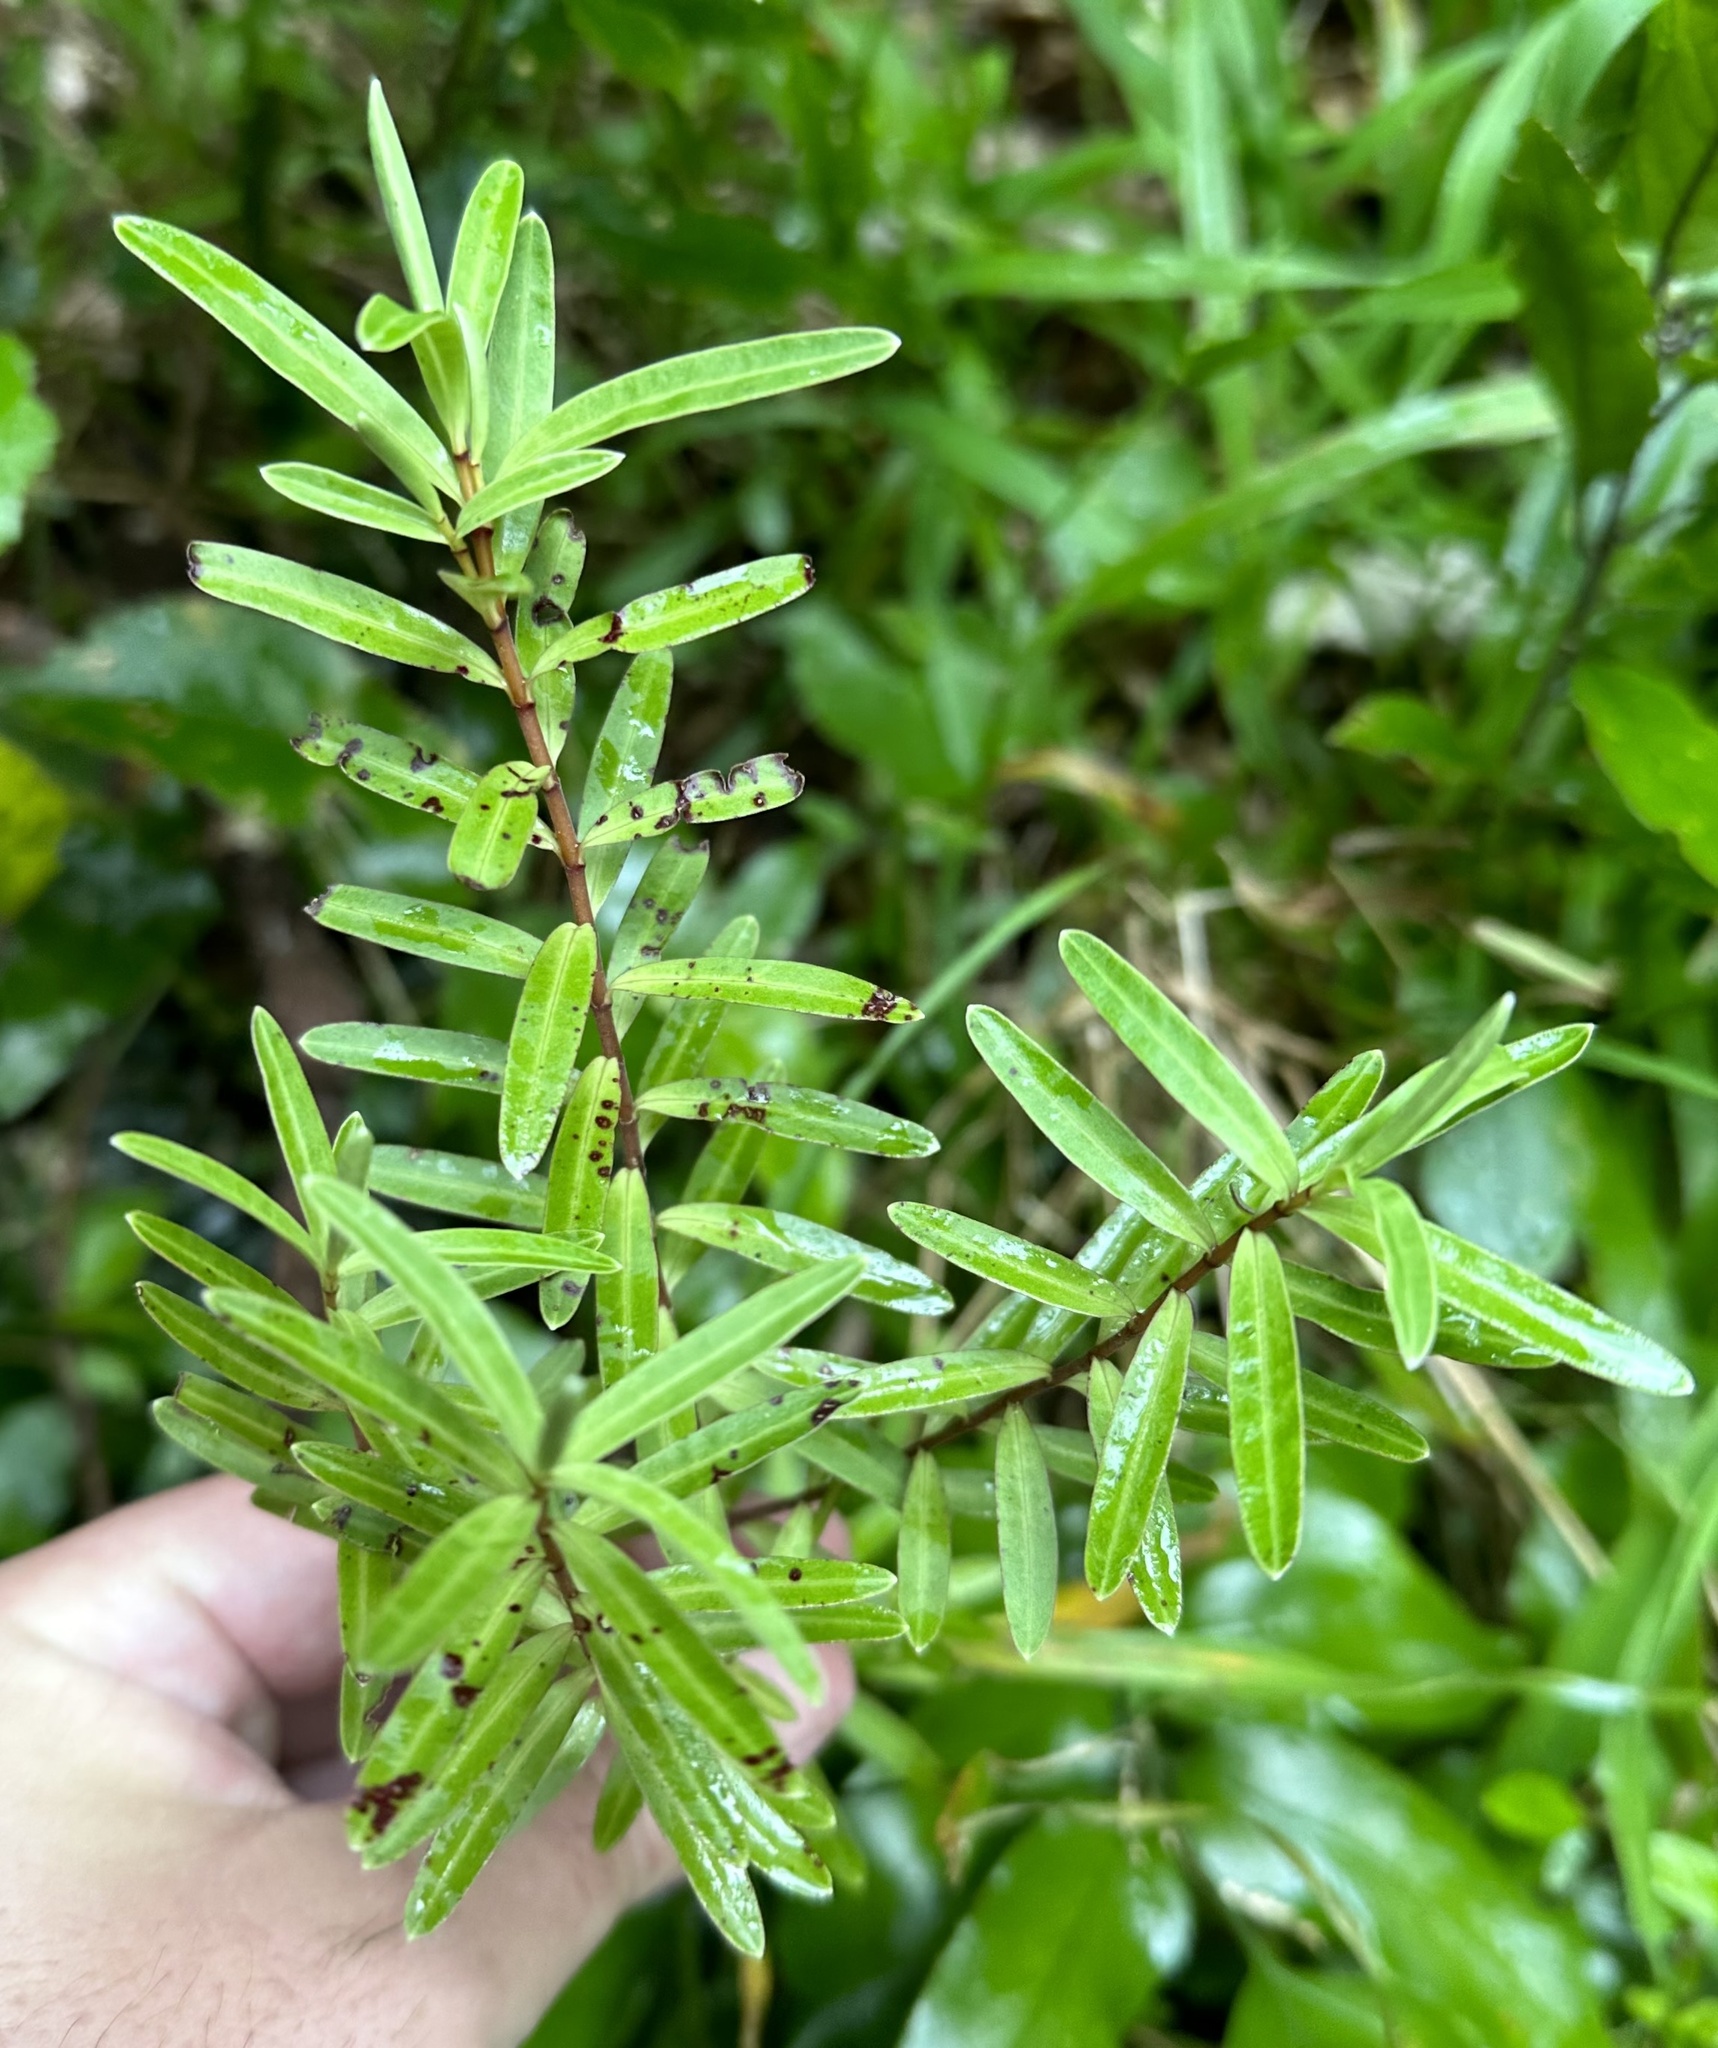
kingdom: Plantae
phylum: Tracheophyta
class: Magnoliopsida
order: Lamiales
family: Plantaginaceae
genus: Veronica
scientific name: Veronica parviflora
